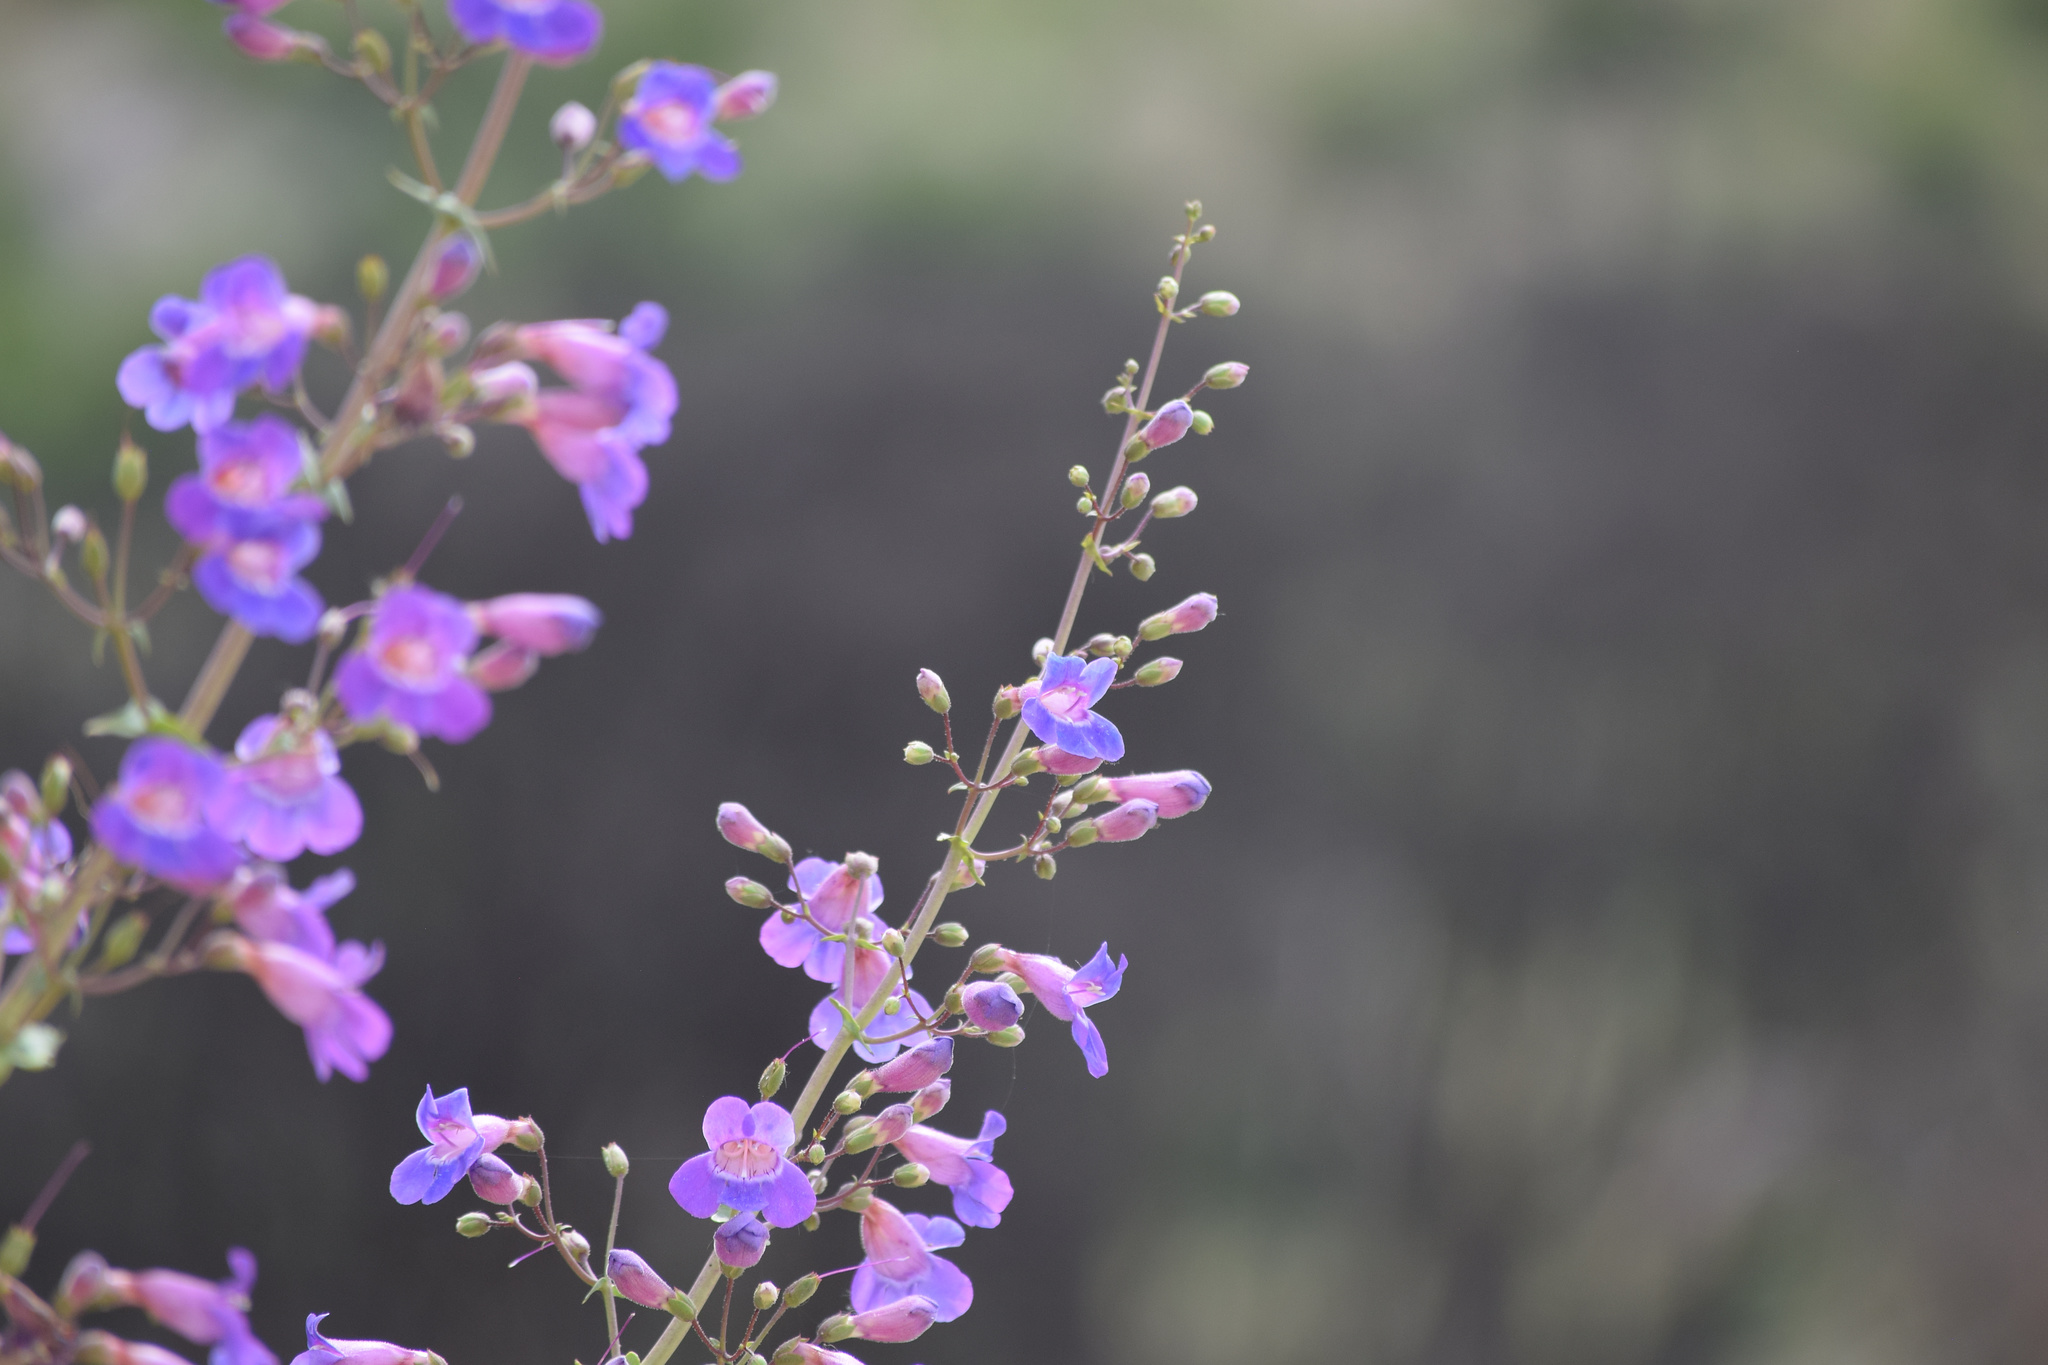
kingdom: Plantae
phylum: Tracheophyta
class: Magnoliopsida
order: Lamiales
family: Plantaginaceae
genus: Penstemon
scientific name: Penstemon spectabilis
